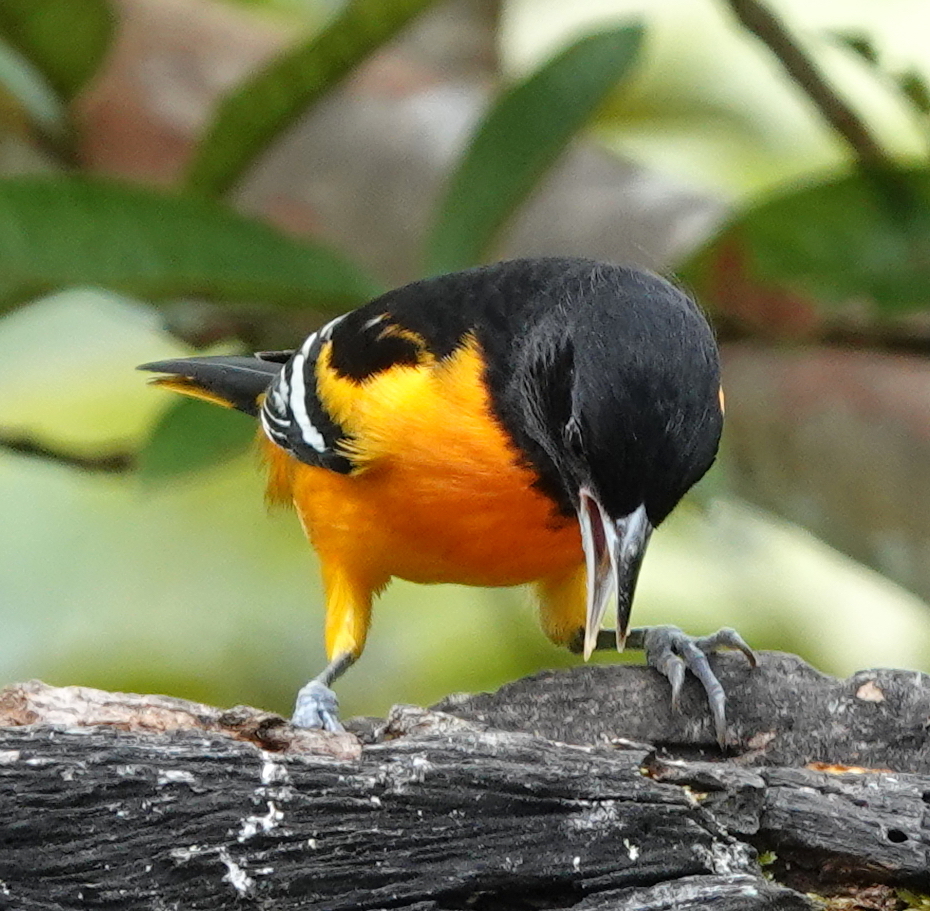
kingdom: Animalia
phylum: Chordata
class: Aves
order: Passeriformes
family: Icteridae
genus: Icterus
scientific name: Icterus galbula
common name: Baltimore oriole
